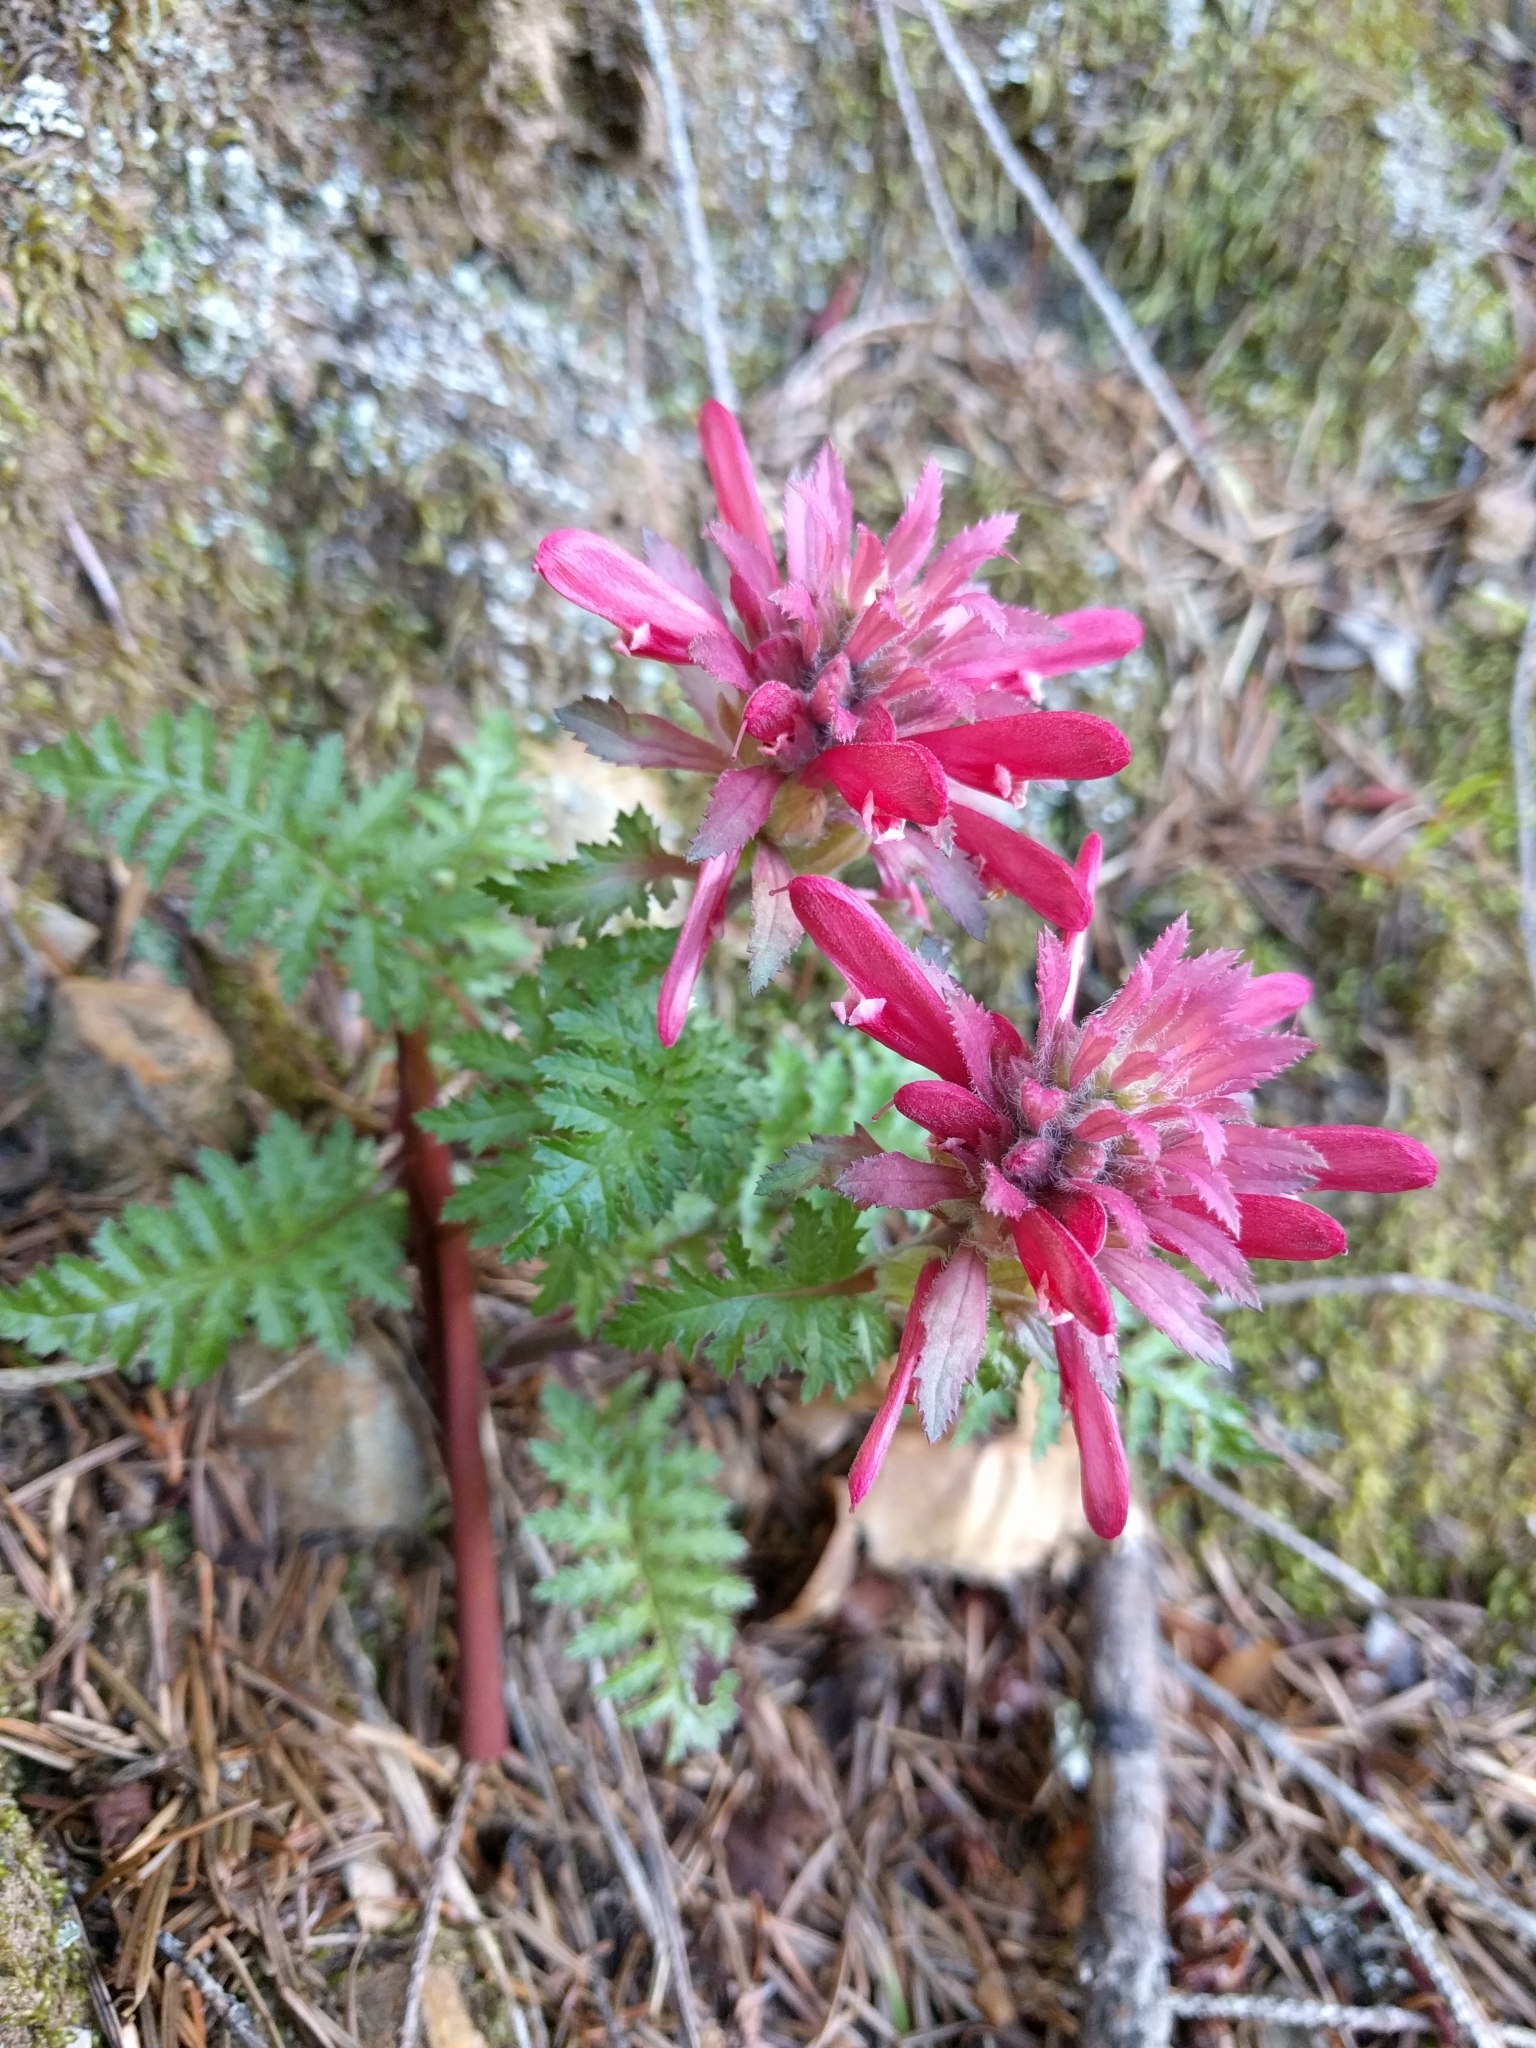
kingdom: Plantae
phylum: Tracheophyta
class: Magnoliopsida
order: Lamiales
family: Orobanchaceae
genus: Pedicularis
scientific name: Pedicularis densiflora
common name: Indian warrior
